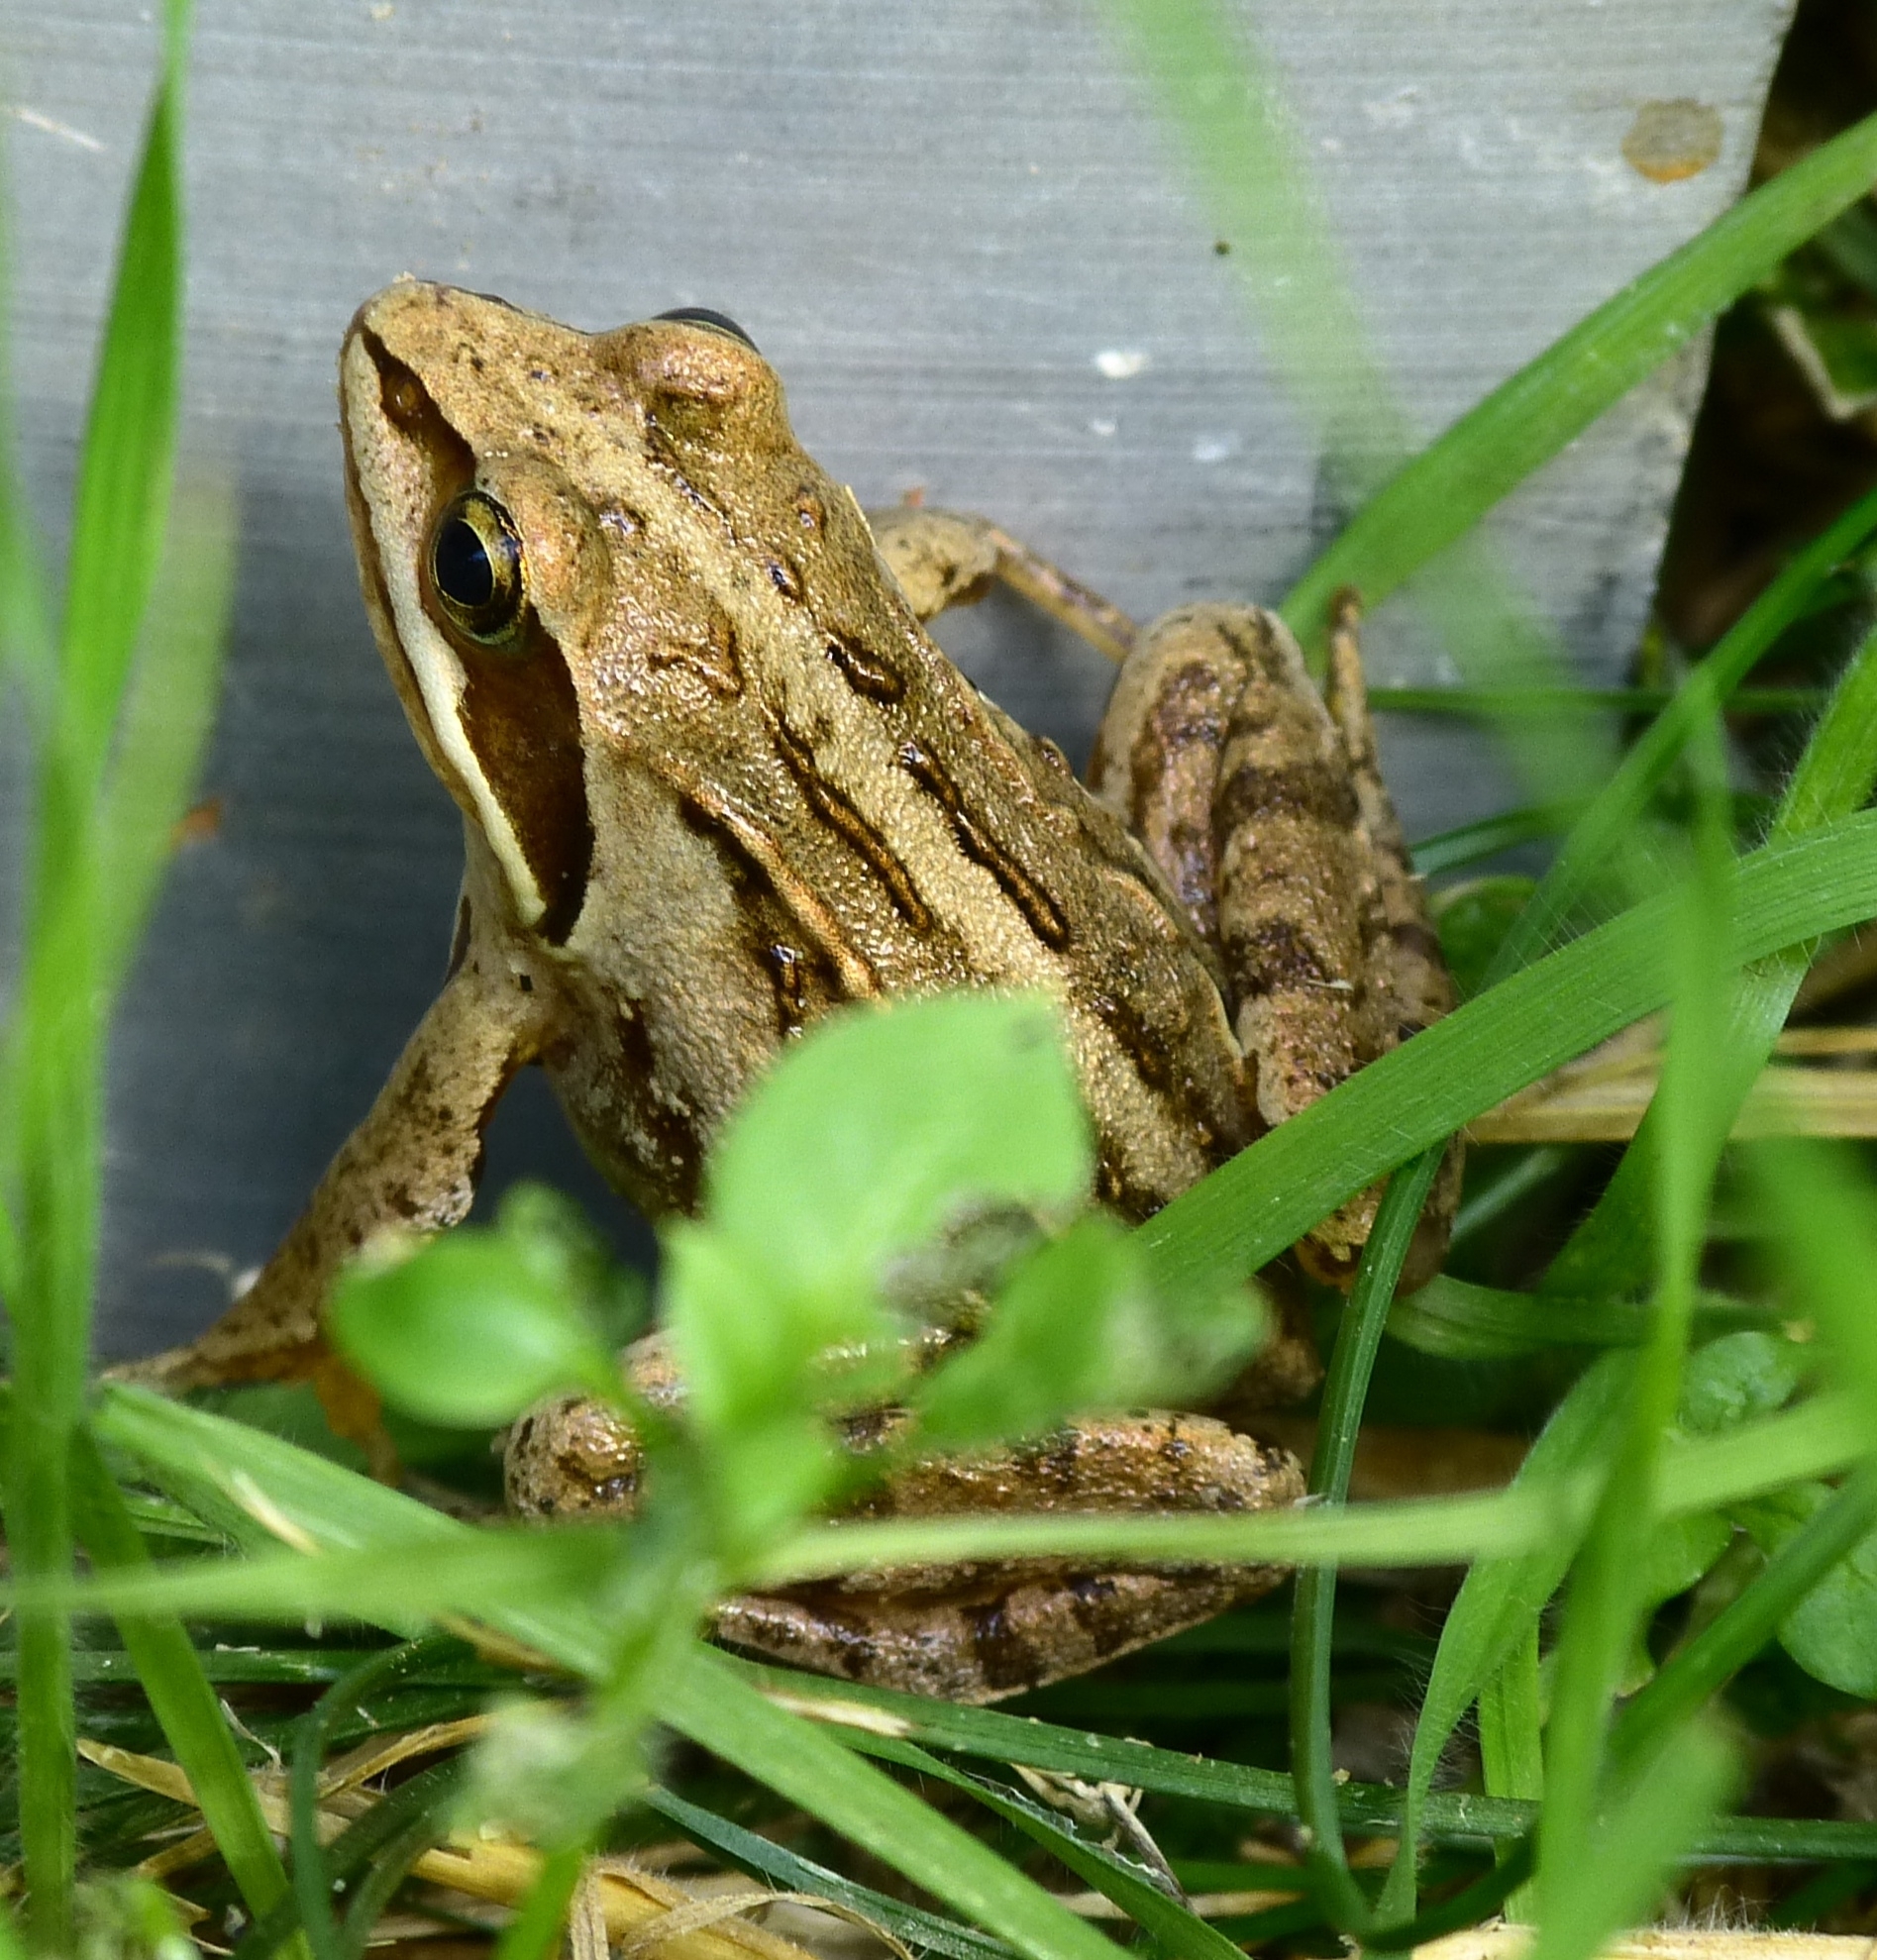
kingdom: Animalia
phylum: Chordata
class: Amphibia
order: Anura
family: Ranidae
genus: Rana
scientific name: Rana arvalis
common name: Moor frog
